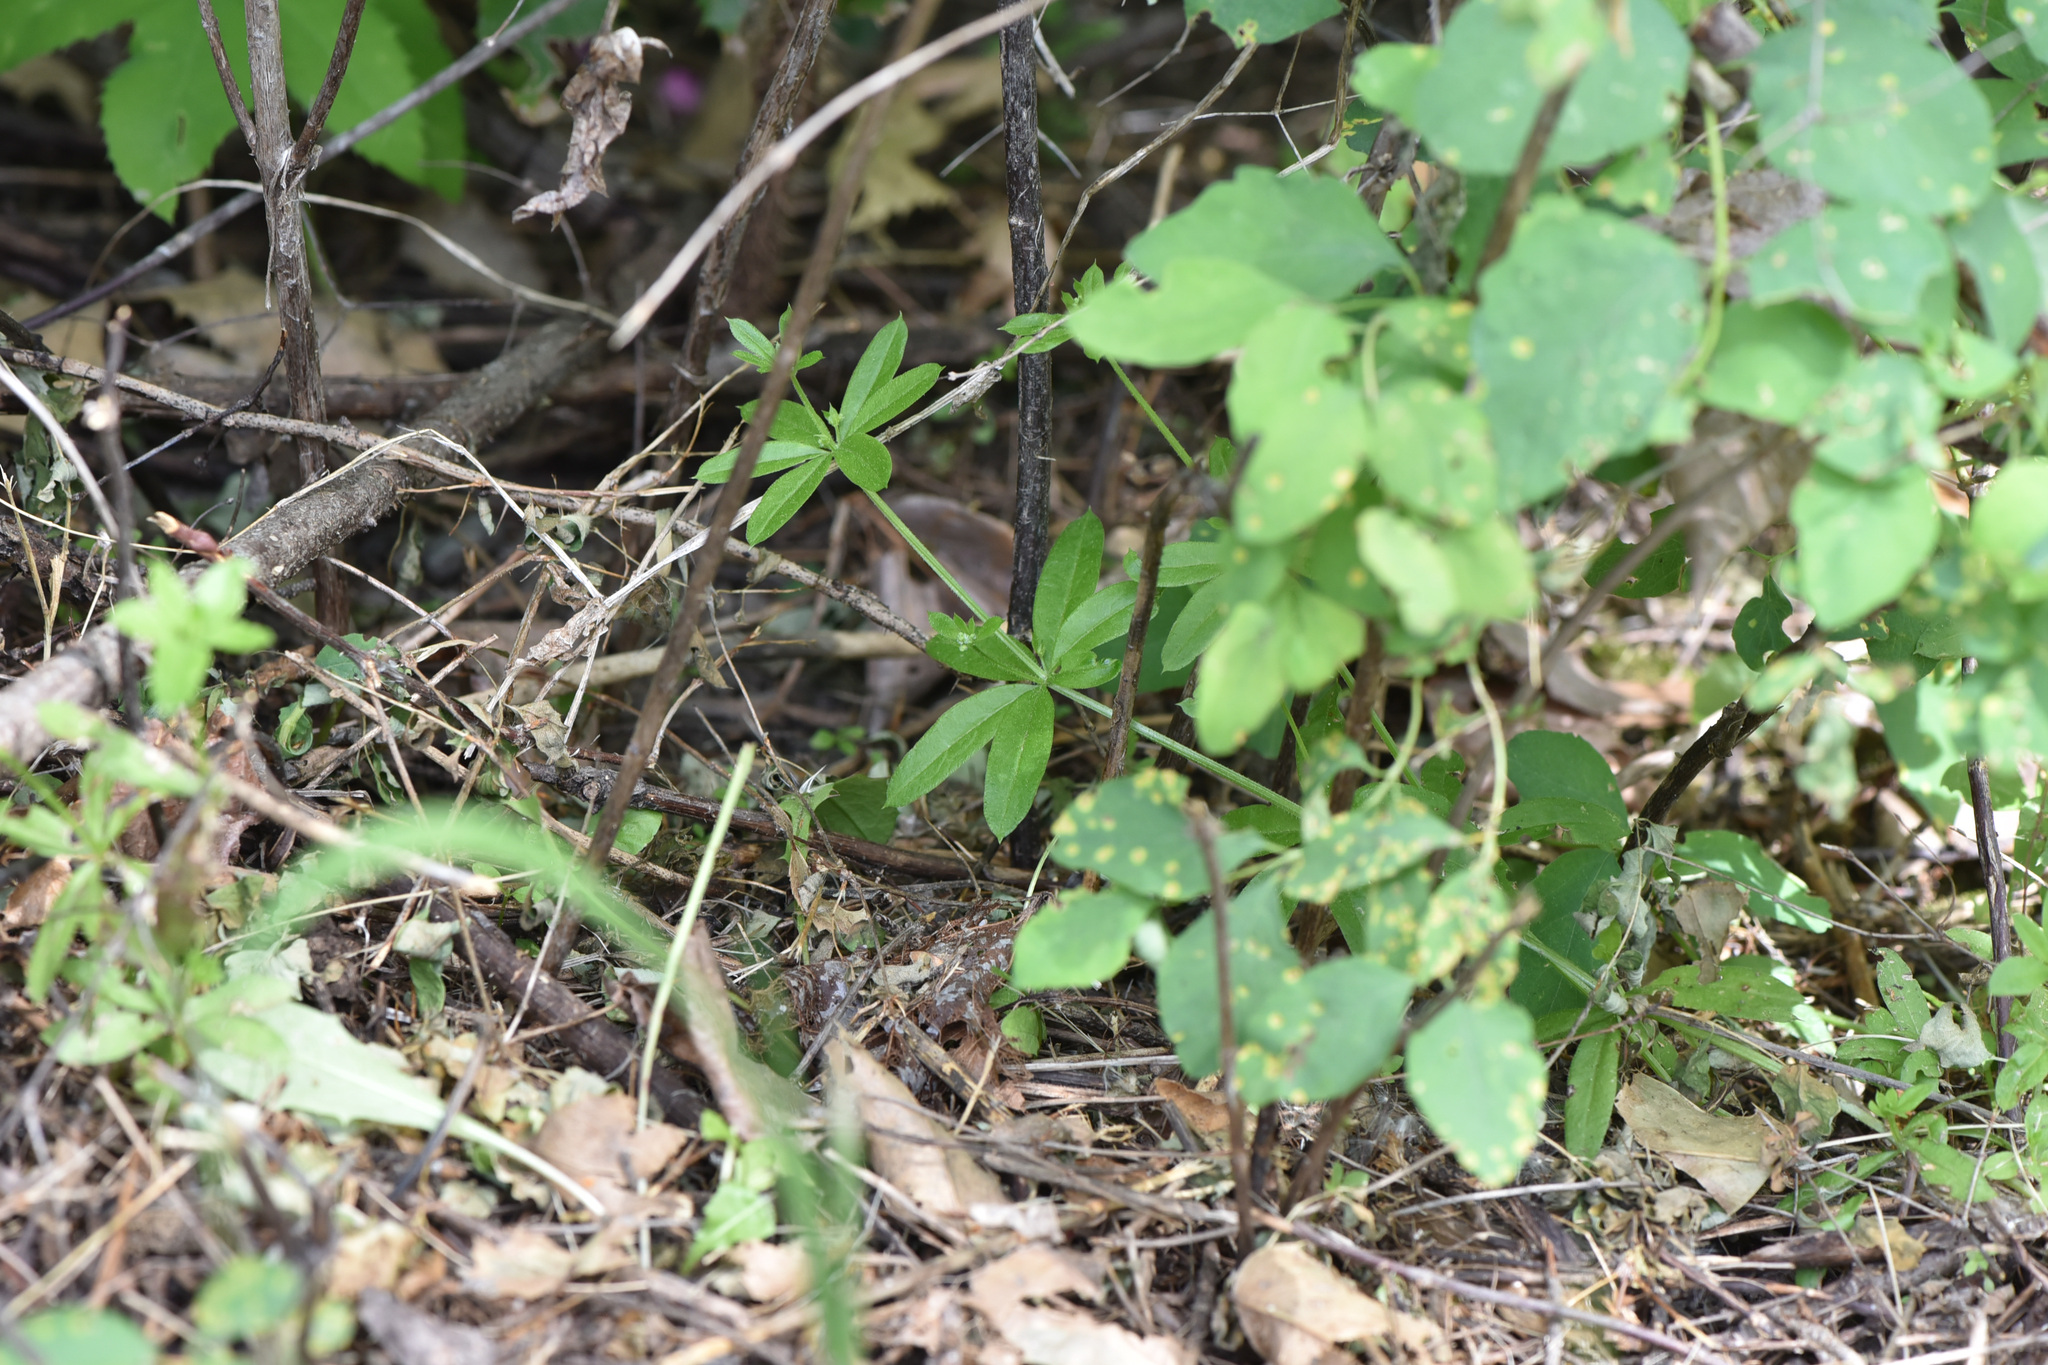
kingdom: Plantae
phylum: Tracheophyta
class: Magnoliopsida
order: Gentianales
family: Rubiaceae
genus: Galium
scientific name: Galium triflorum
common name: Fragrant bedstraw
